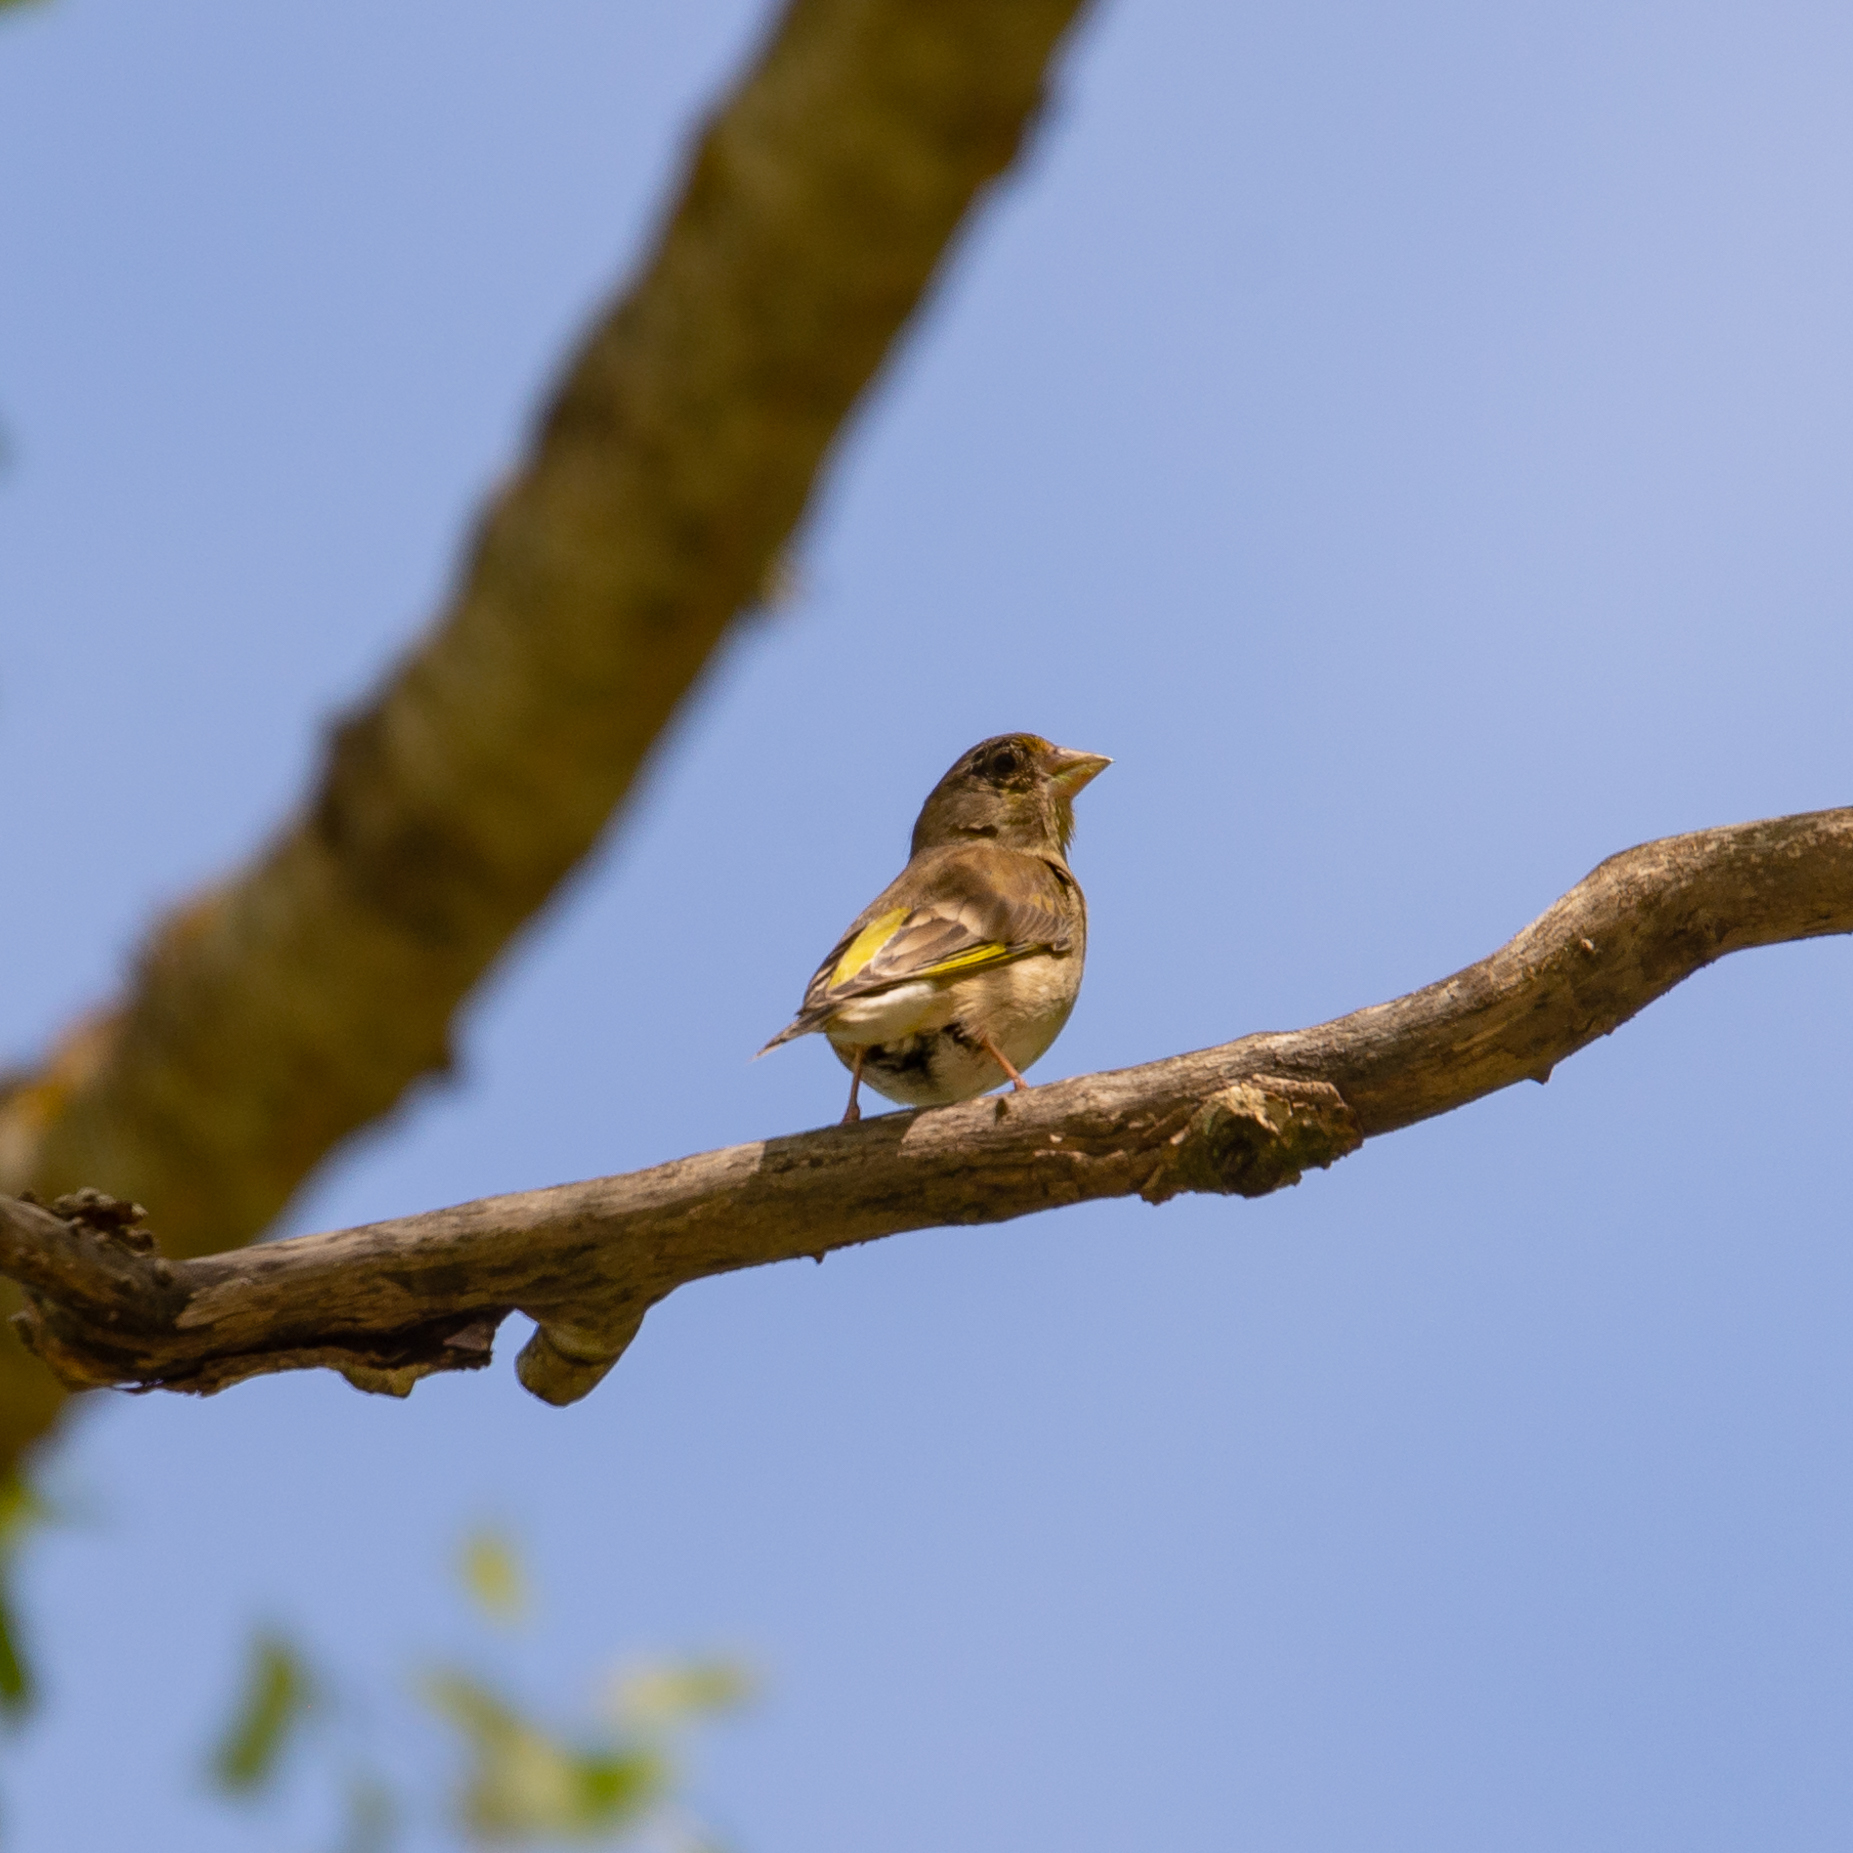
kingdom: Plantae
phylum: Tracheophyta
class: Liliopsida
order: Poales
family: Poaceae
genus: Chloris
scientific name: Chloris chloris
